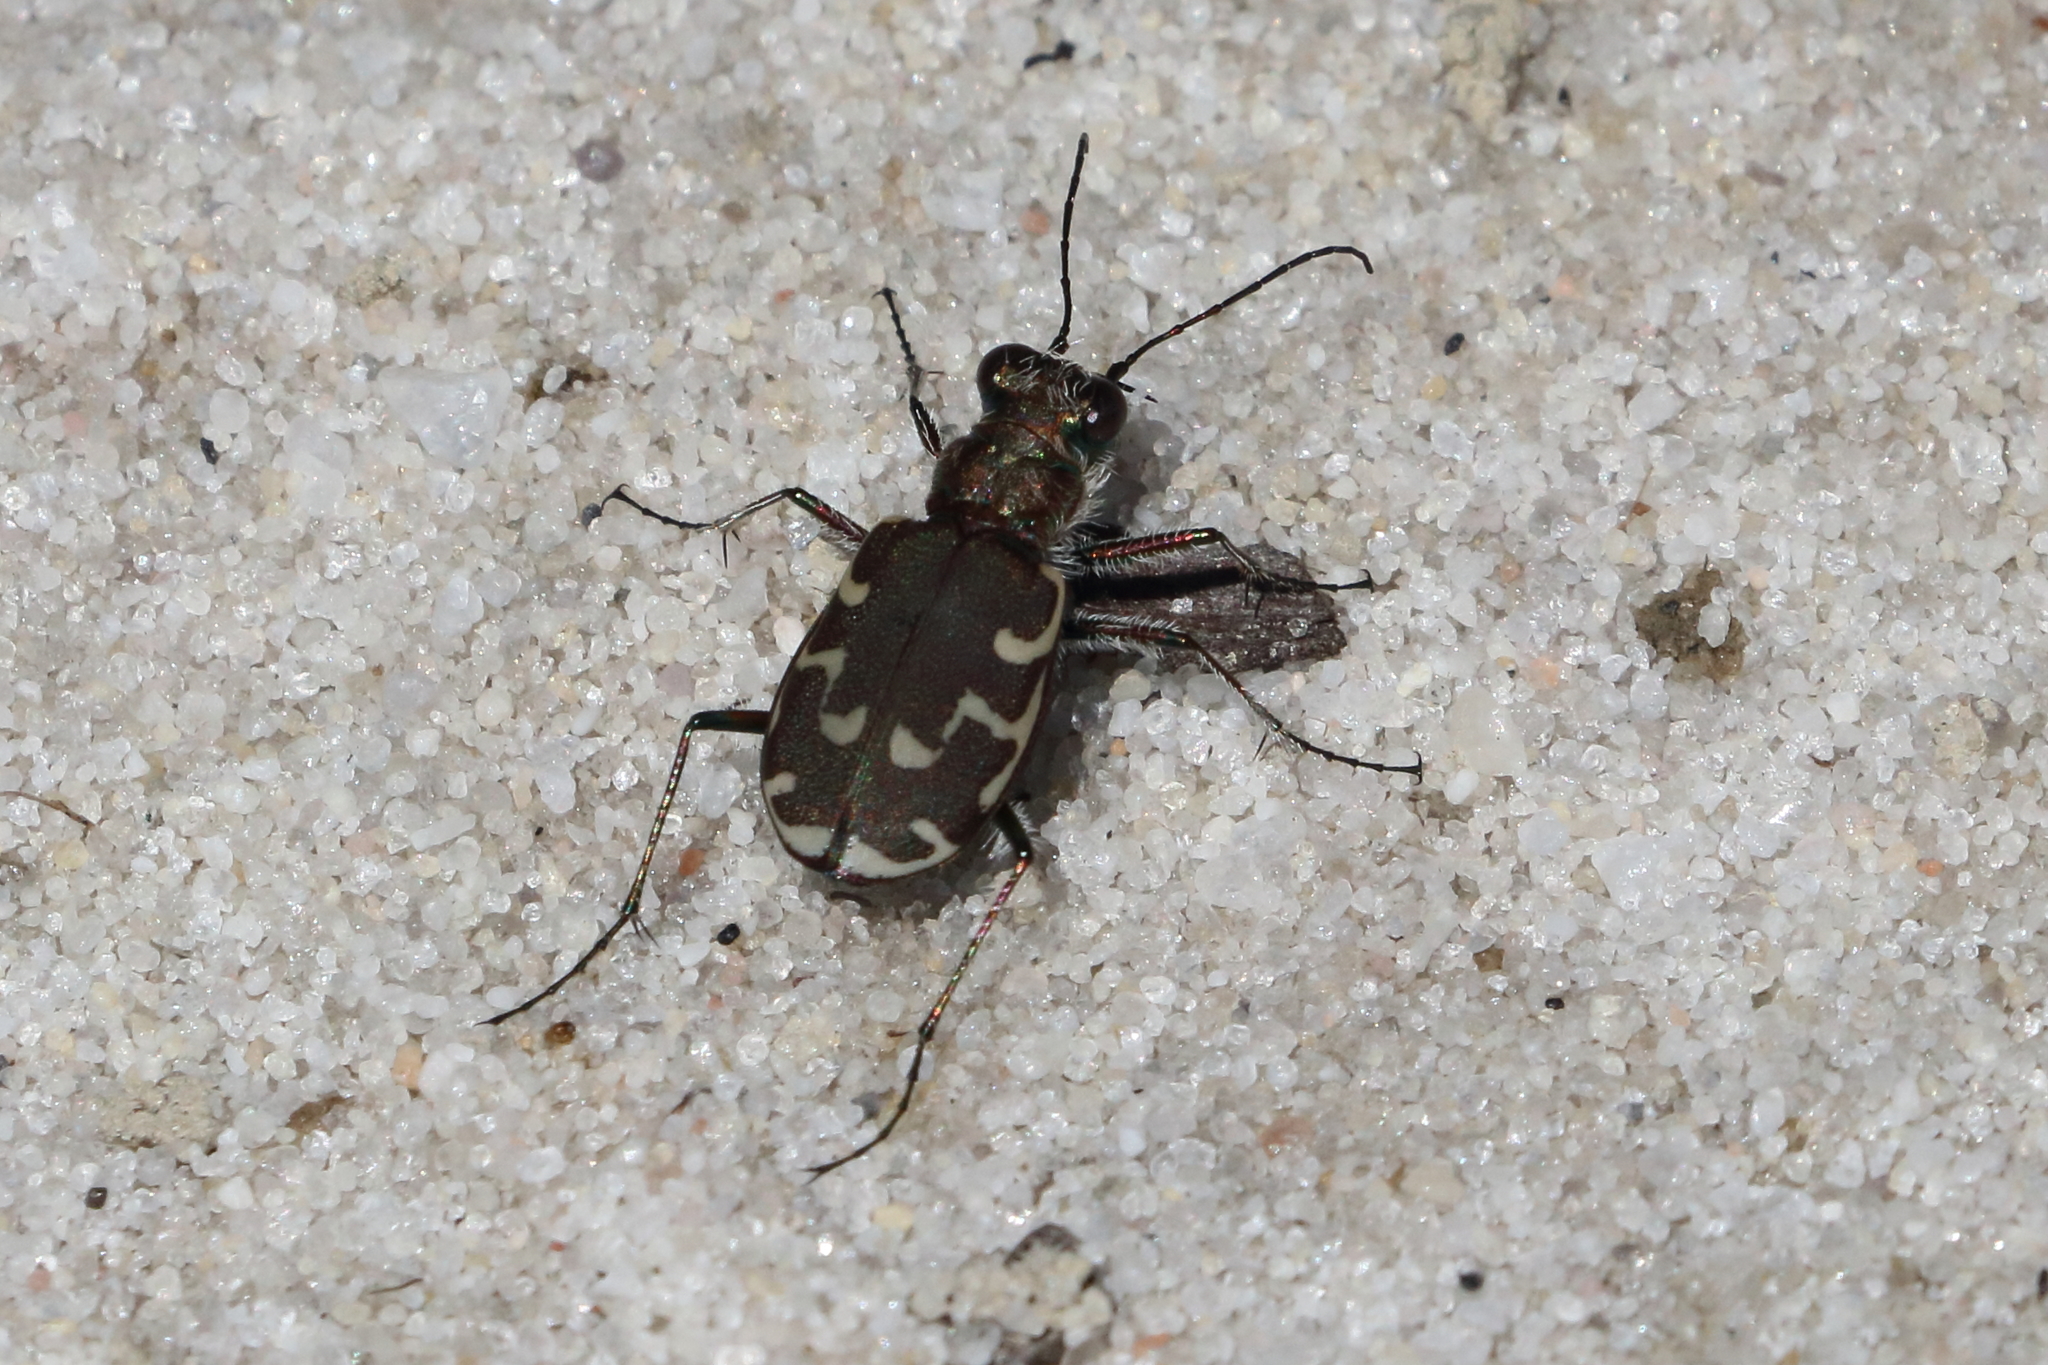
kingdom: Animalia
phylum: Arthropoda
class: Insecta
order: Coleoptera
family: Carabidae
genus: Cicindela
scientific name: Cicindela repanda
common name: Bronzed tiger beetle
